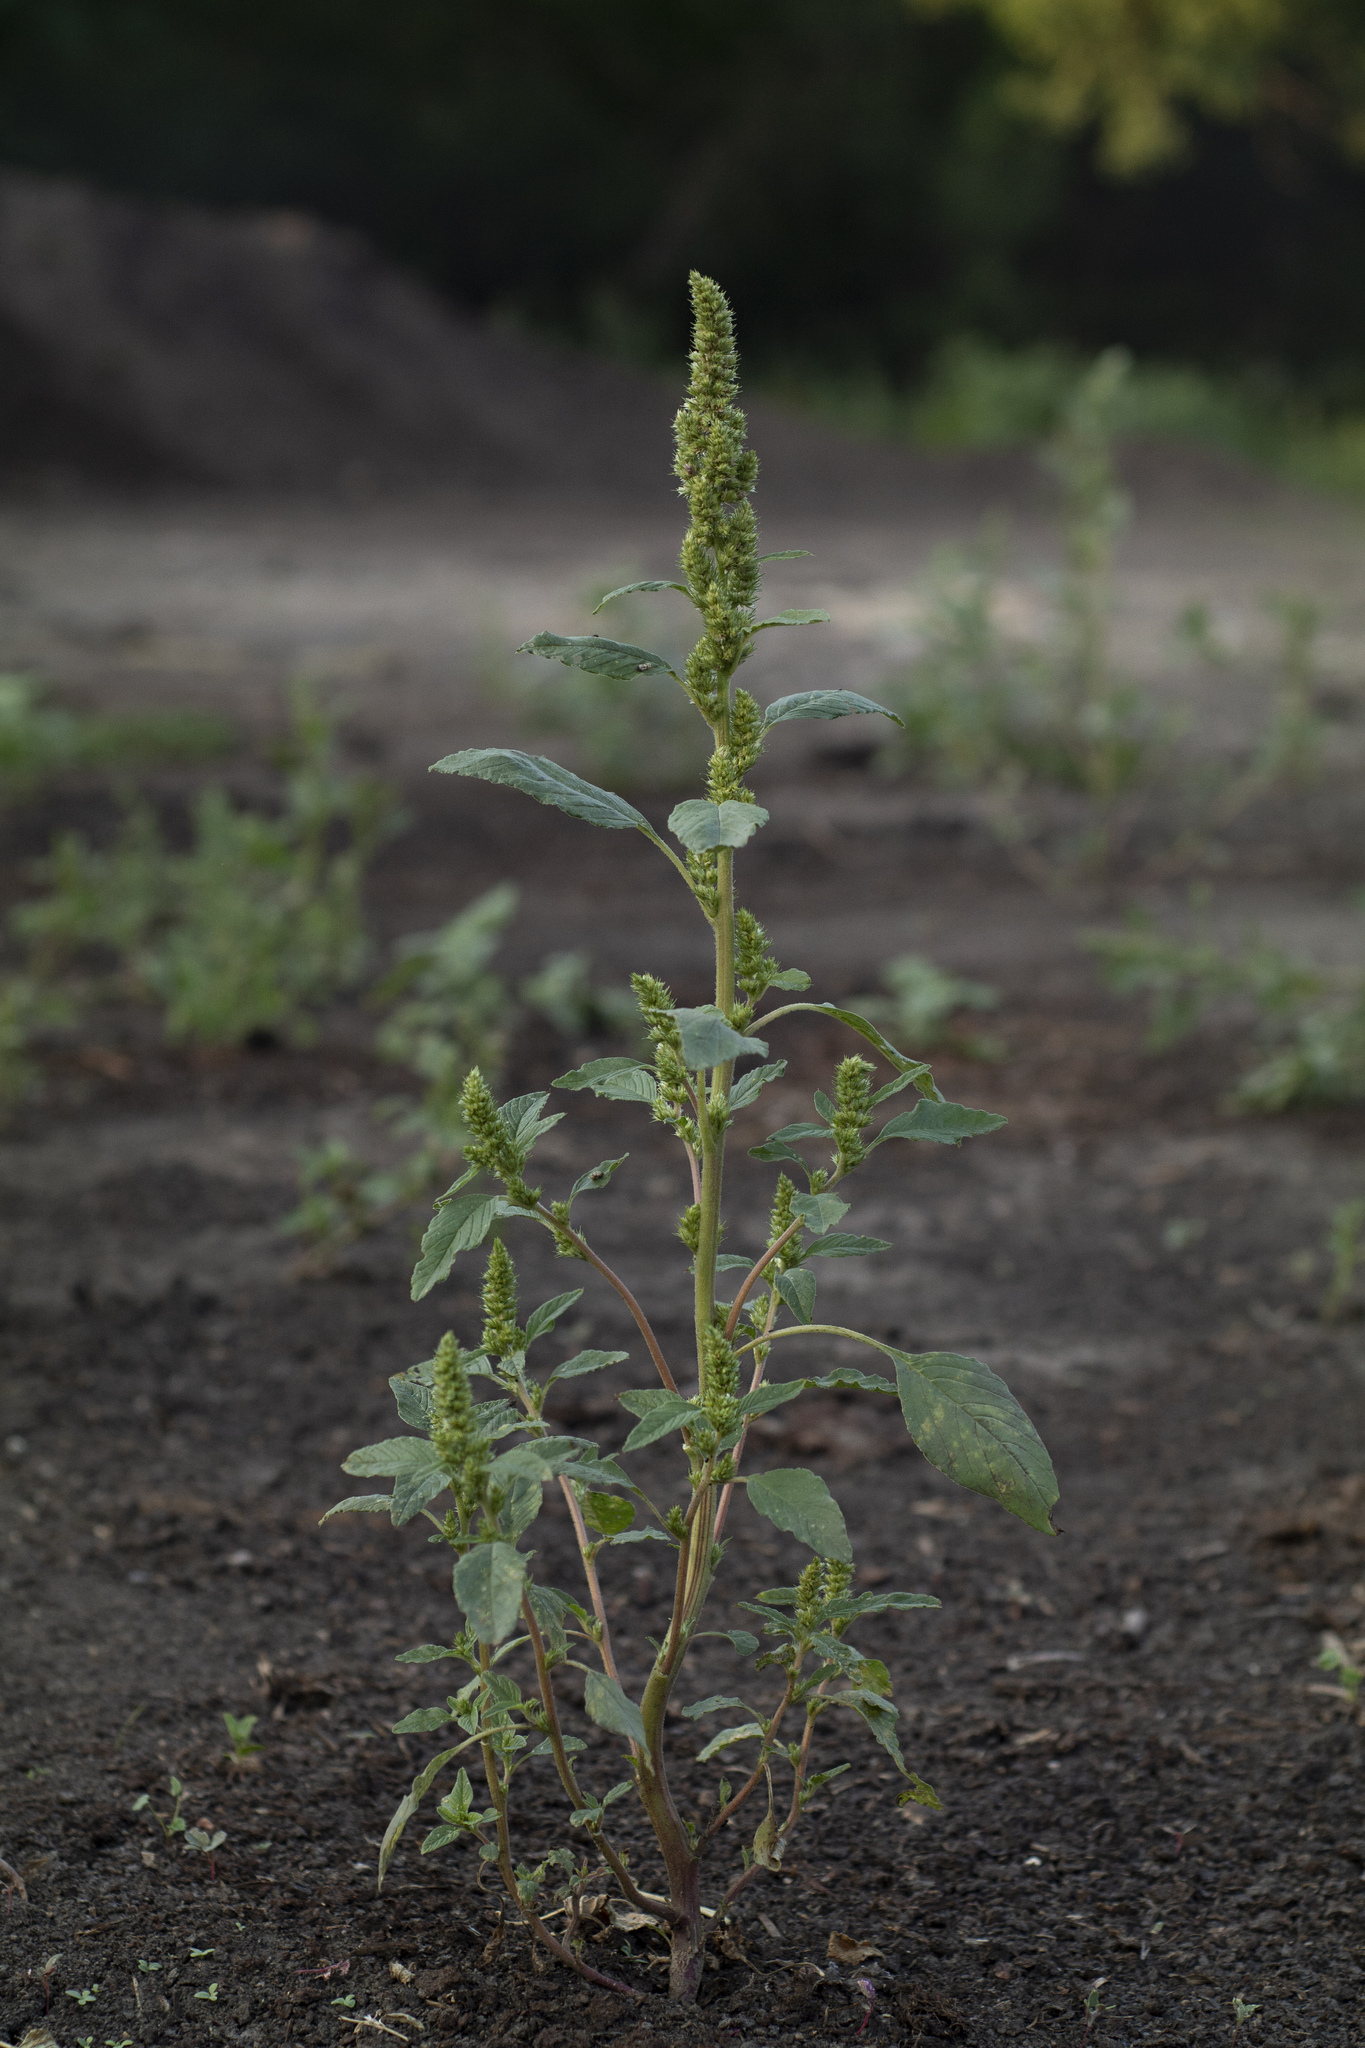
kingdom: Plantae
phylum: Tracheophyta
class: Magnoliopsida
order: Caryophyllales
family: Amaranthaceae
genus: Amaranthus
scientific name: Amaranthus retroflexus
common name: Redroot amaranth
